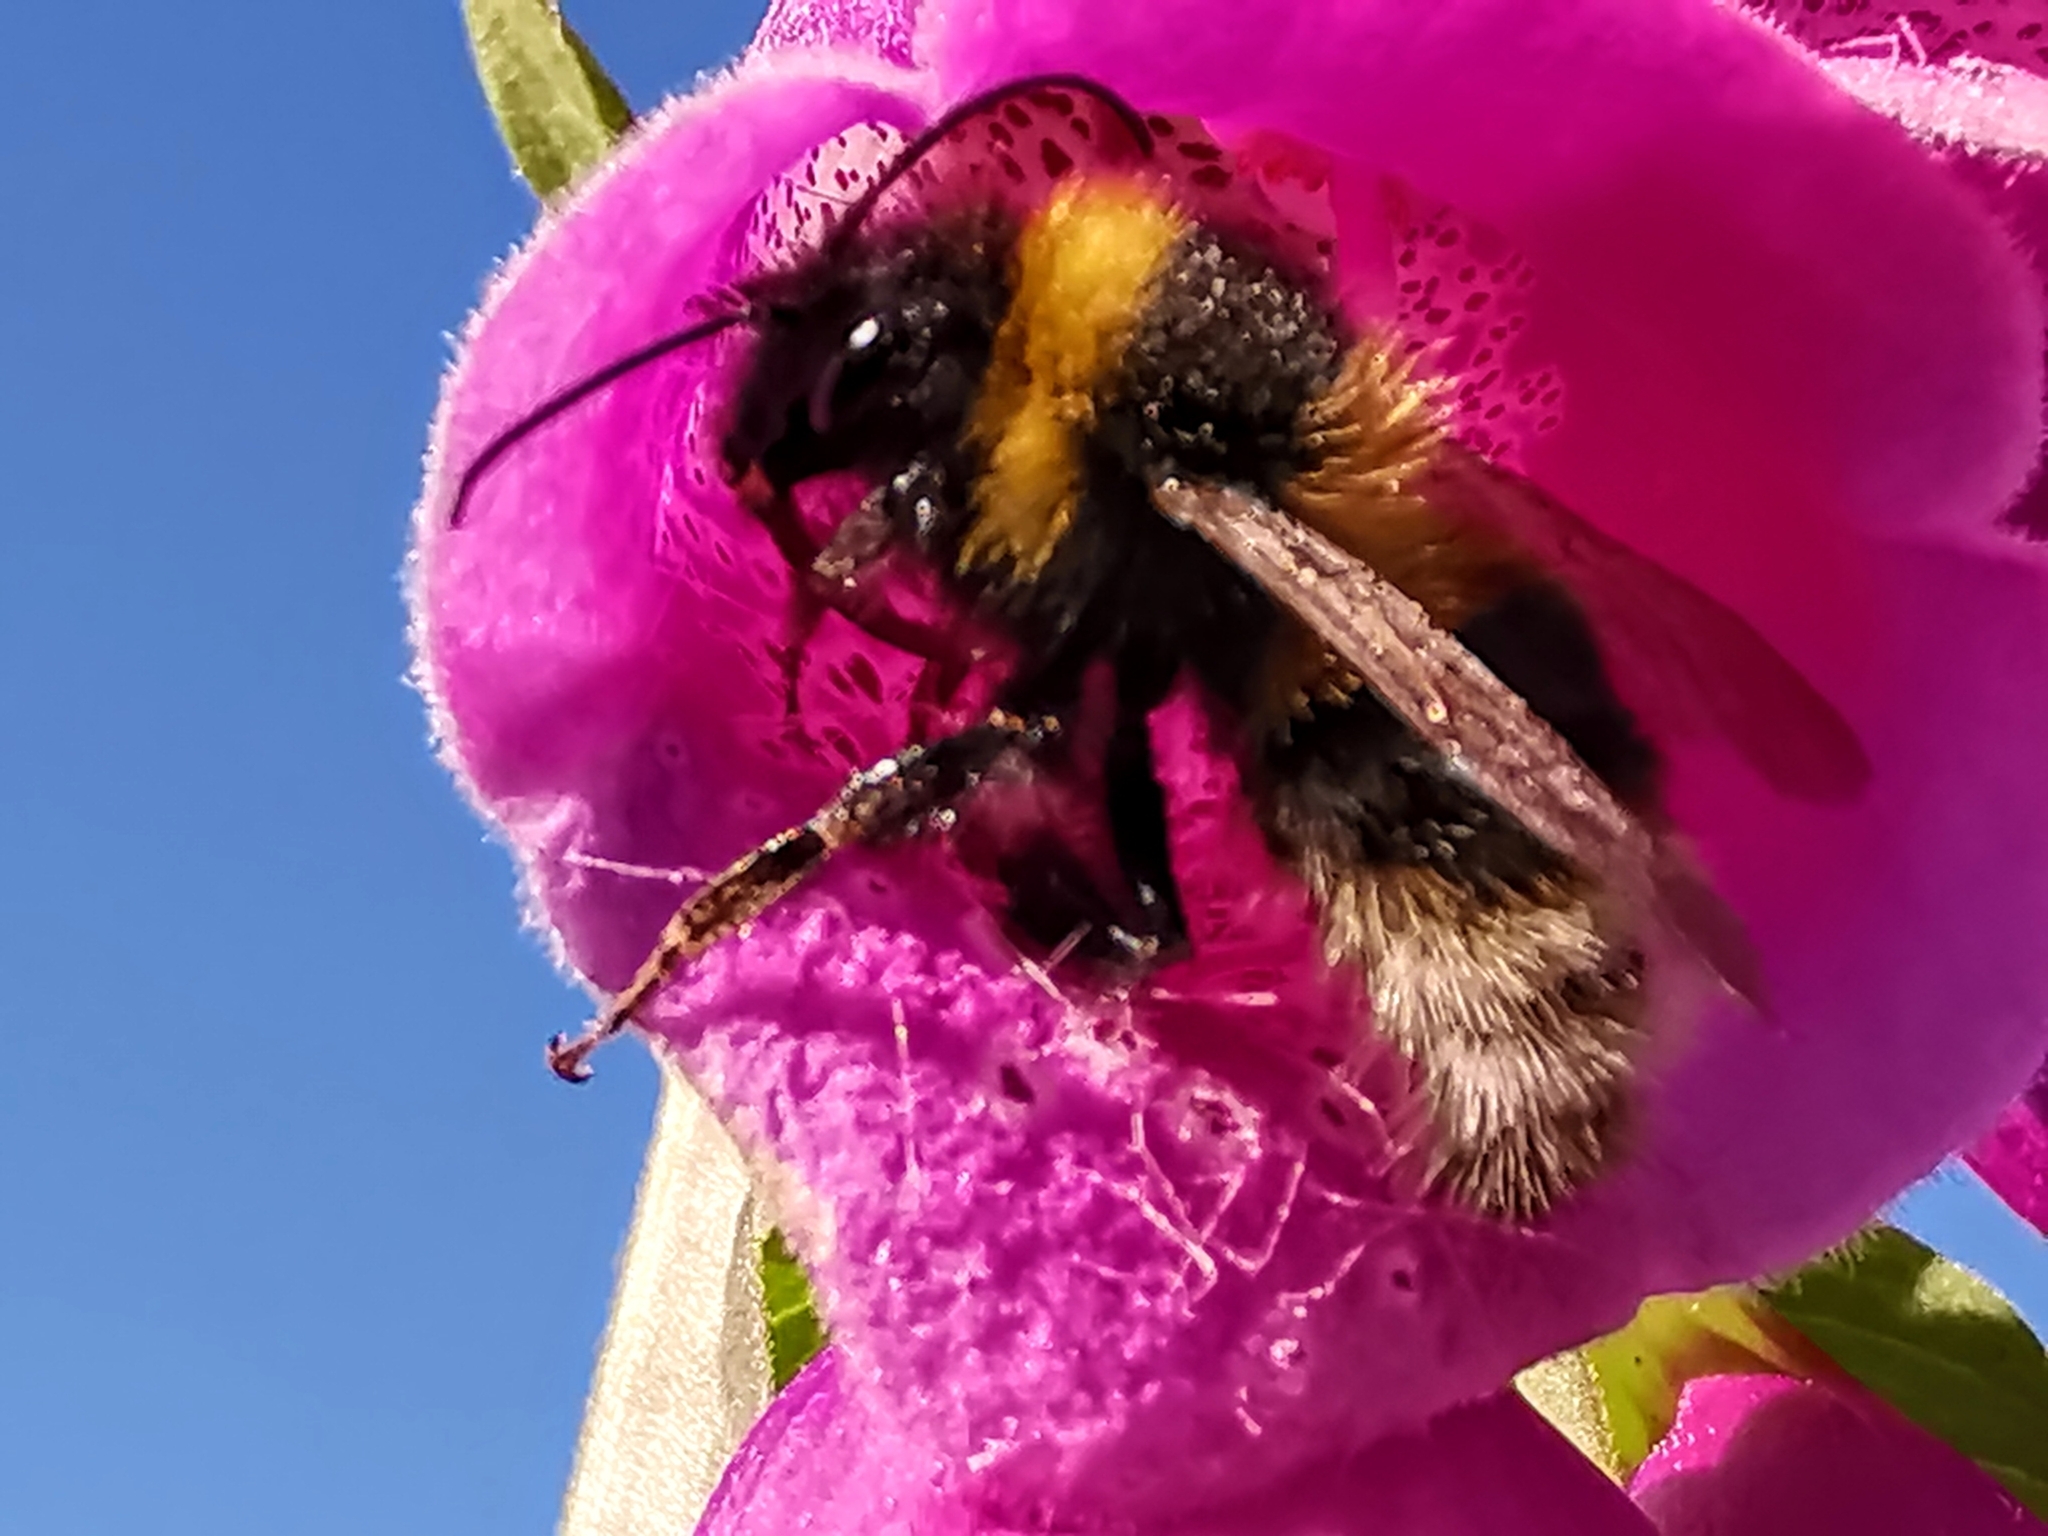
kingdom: Animalia
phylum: Arthropoda
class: Insecta
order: Hymenoptera
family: Apidae
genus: Bombus
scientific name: Bombus hortorum
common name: Garden bumblebee
